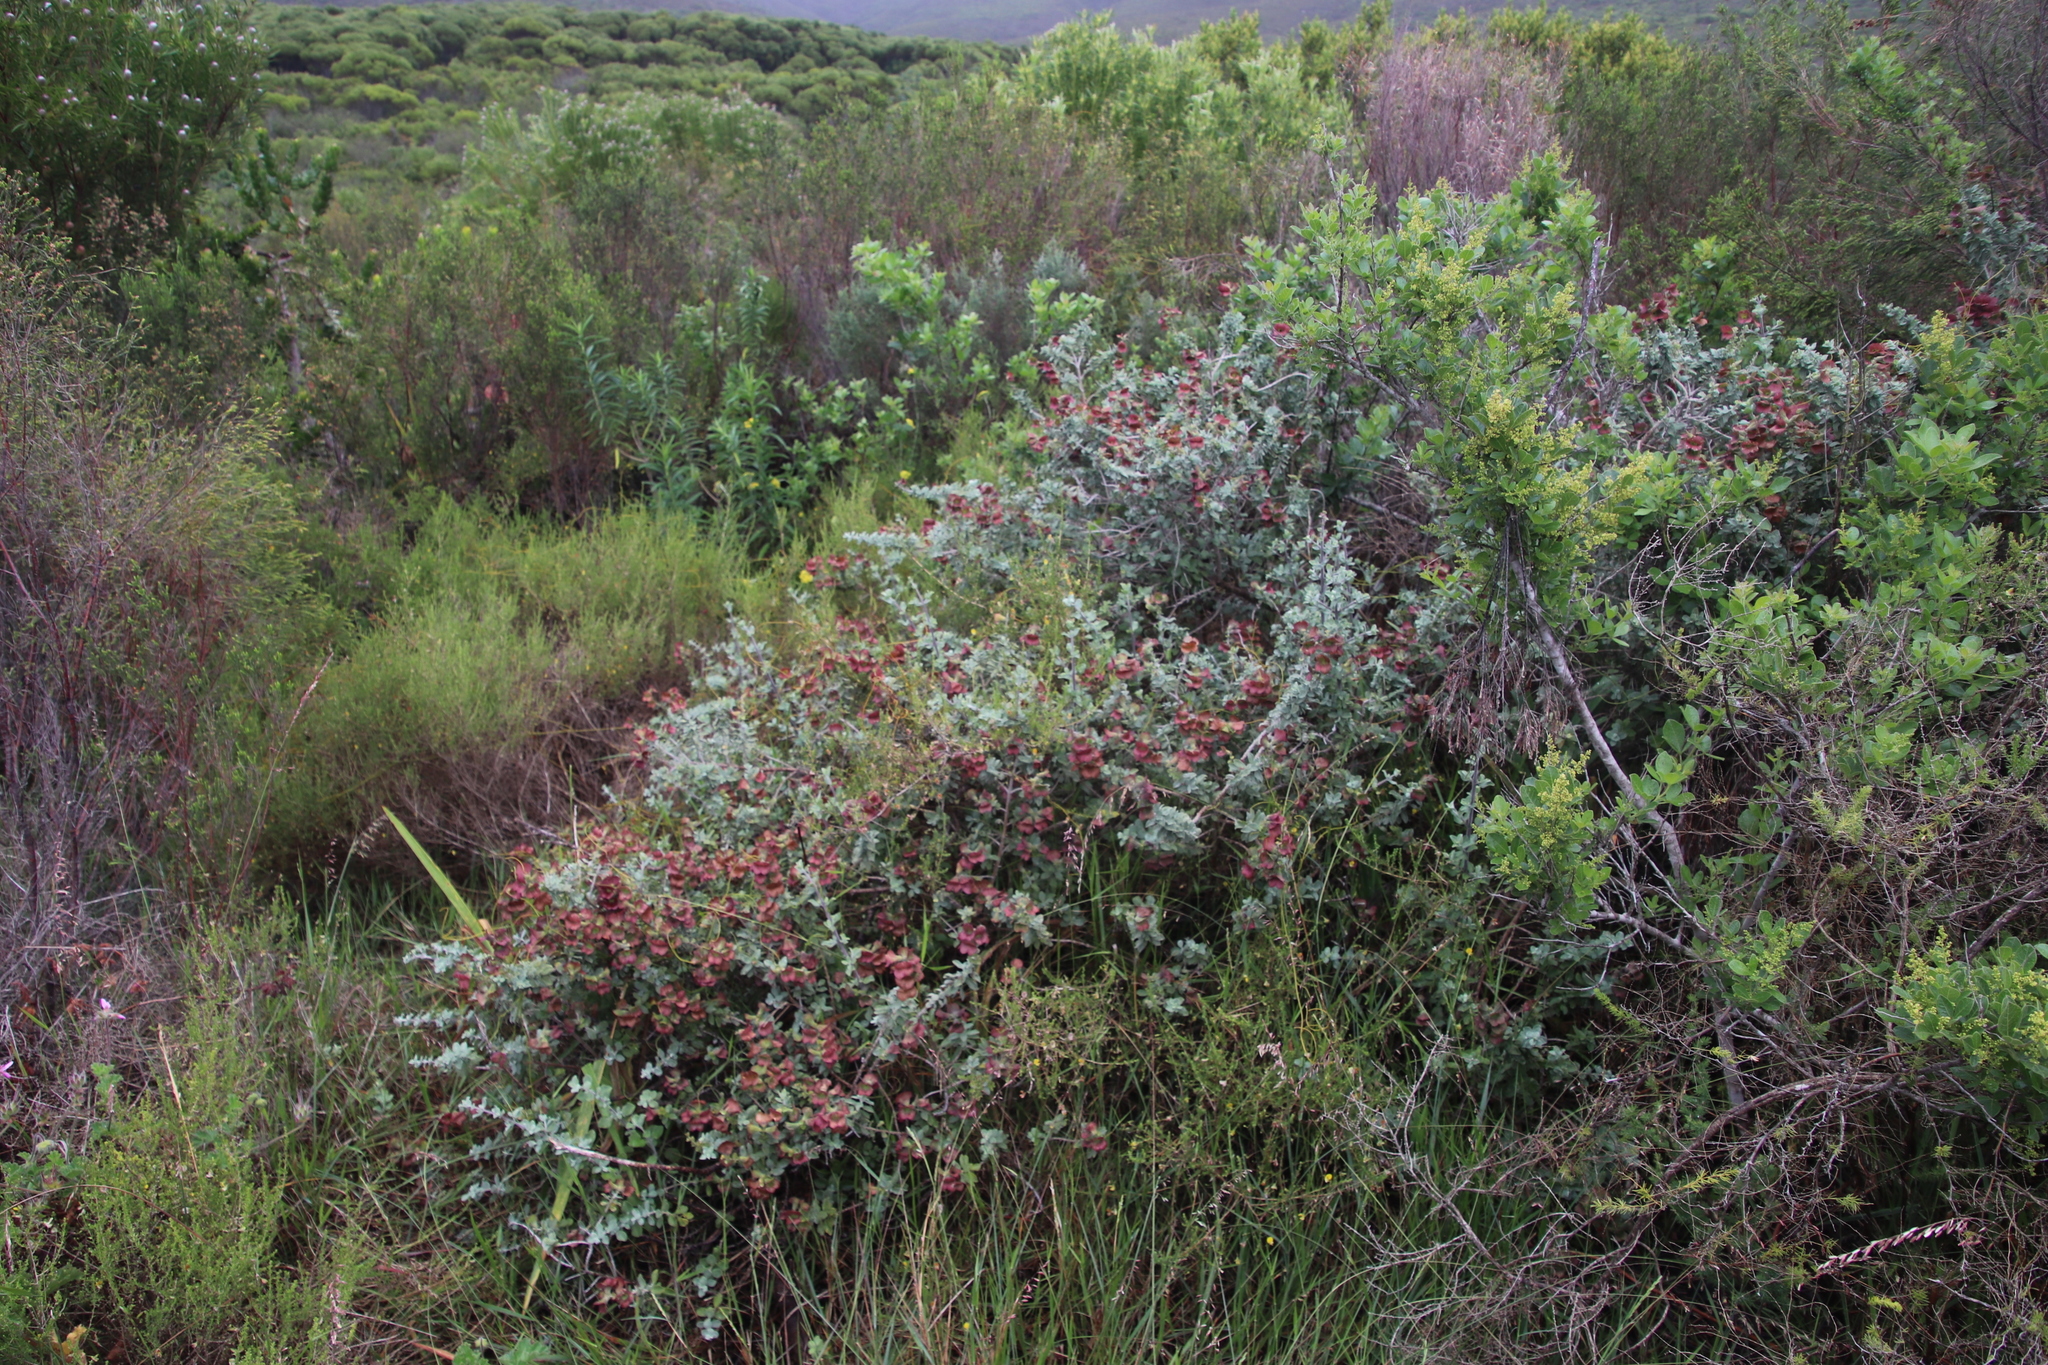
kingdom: Plantae
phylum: Tracheophyta
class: Magnoliopsida
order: Lamiales
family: Lamiaceae
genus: Salvia
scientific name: Salvia aurea
